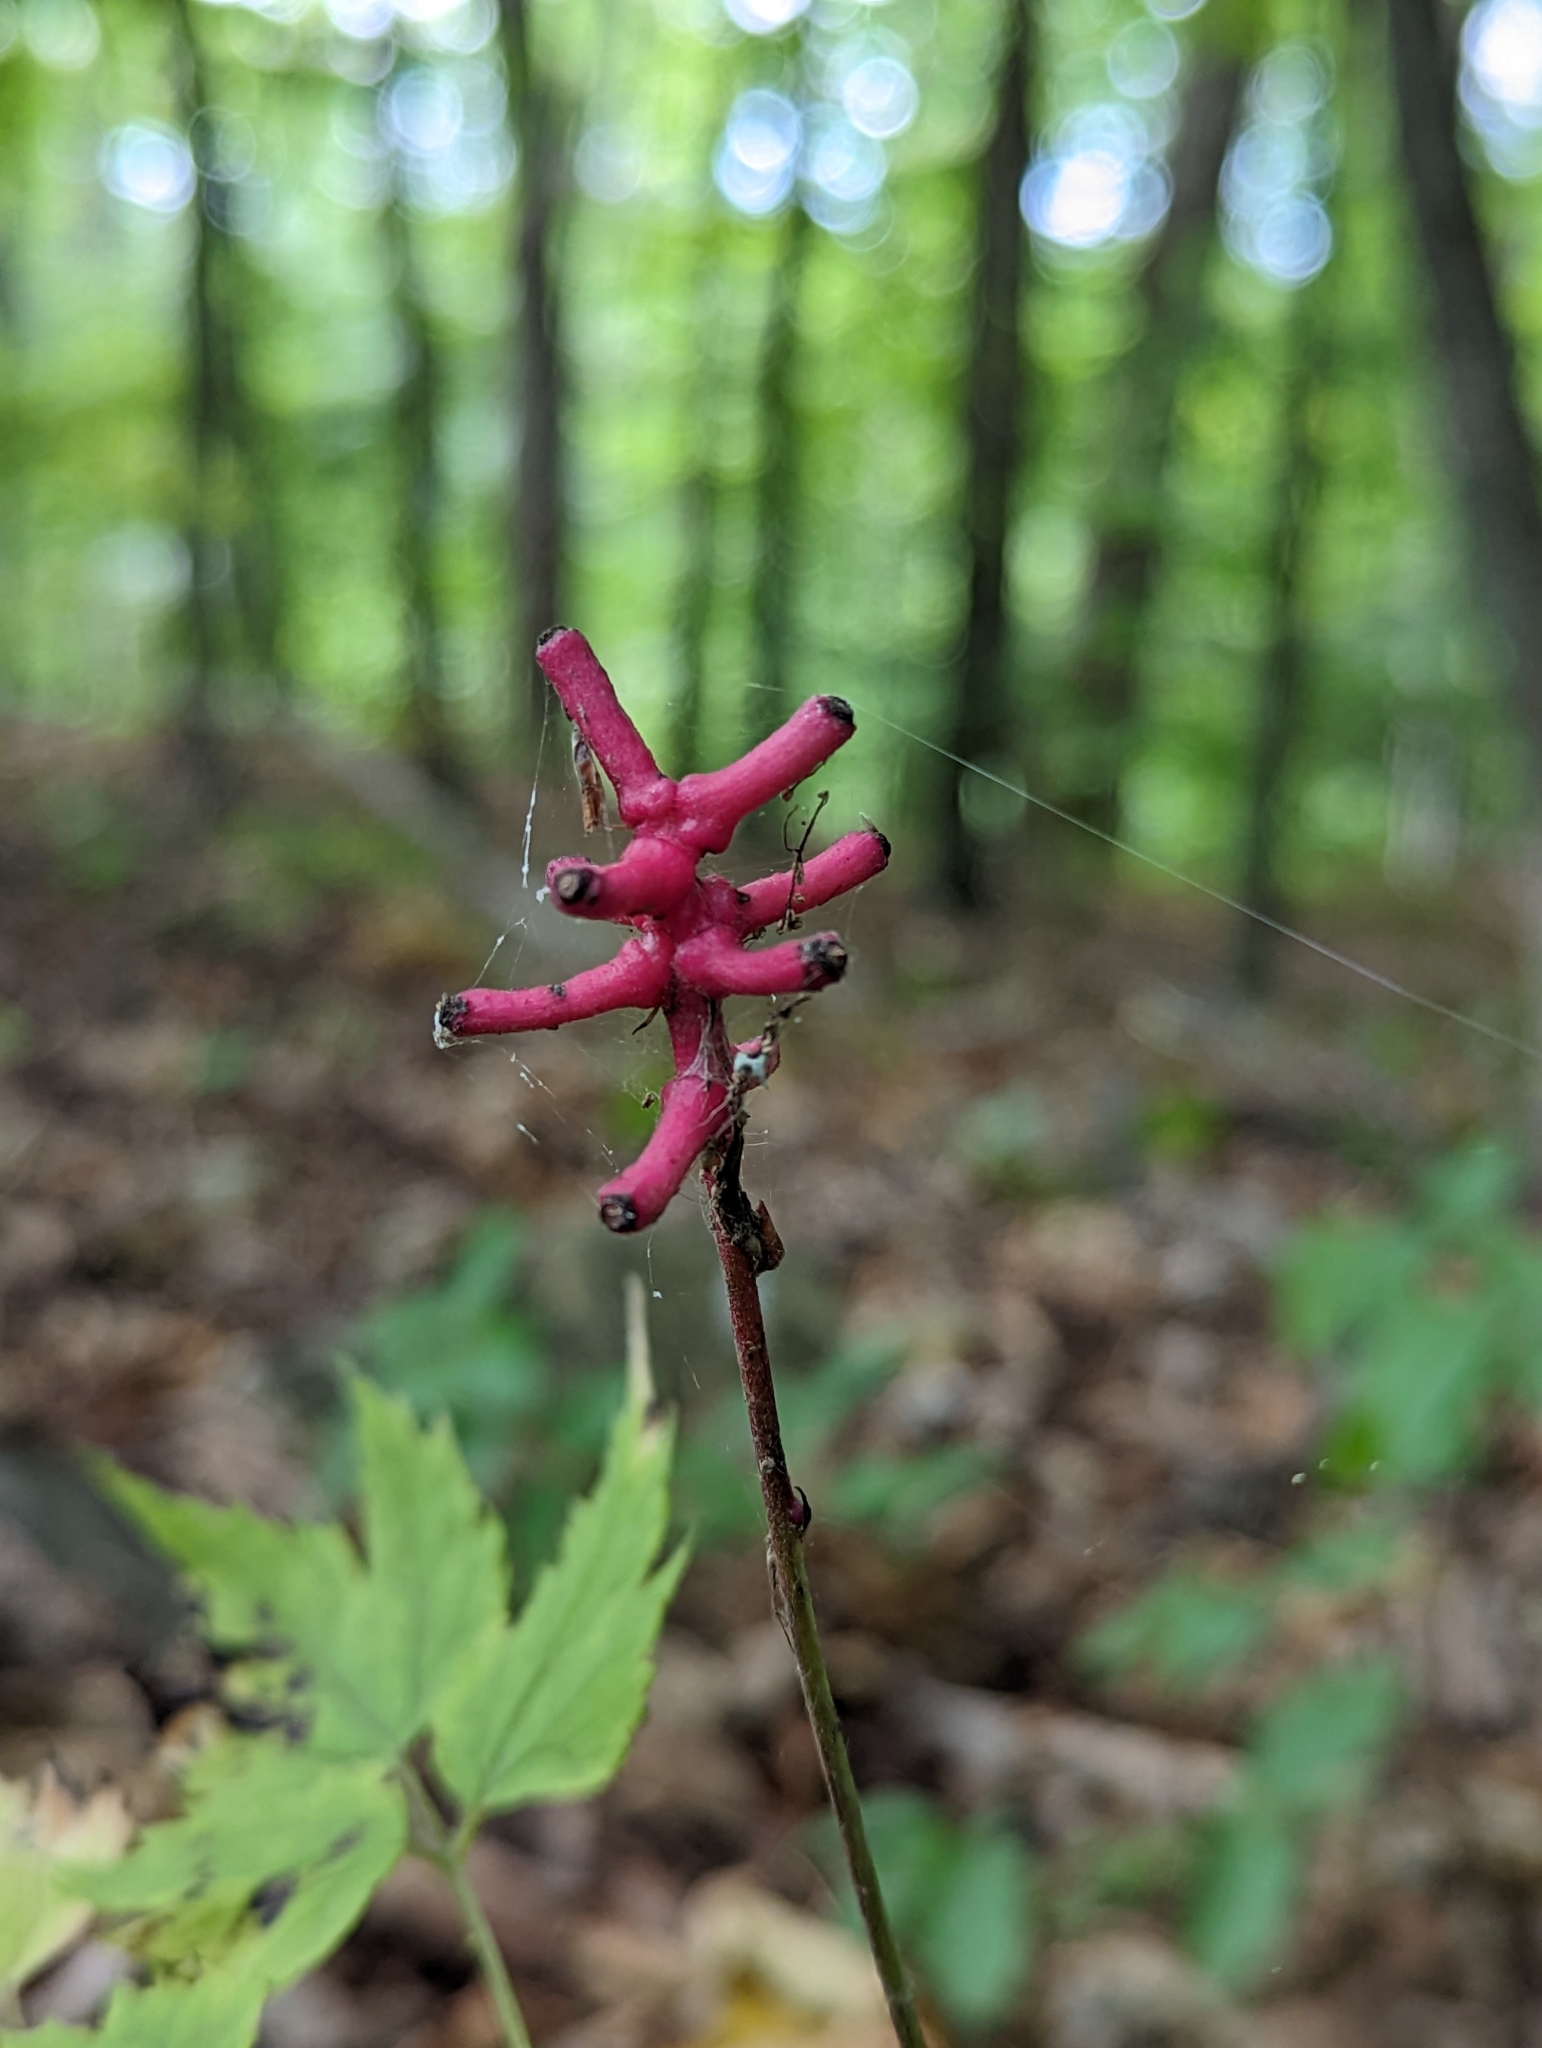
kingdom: Plantae
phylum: Tracheophyta
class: Magnoliopsida
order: Ranunculales
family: Ranunculaceae
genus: Actaea
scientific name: Actaea pachypoda
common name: Doll's-eyes
